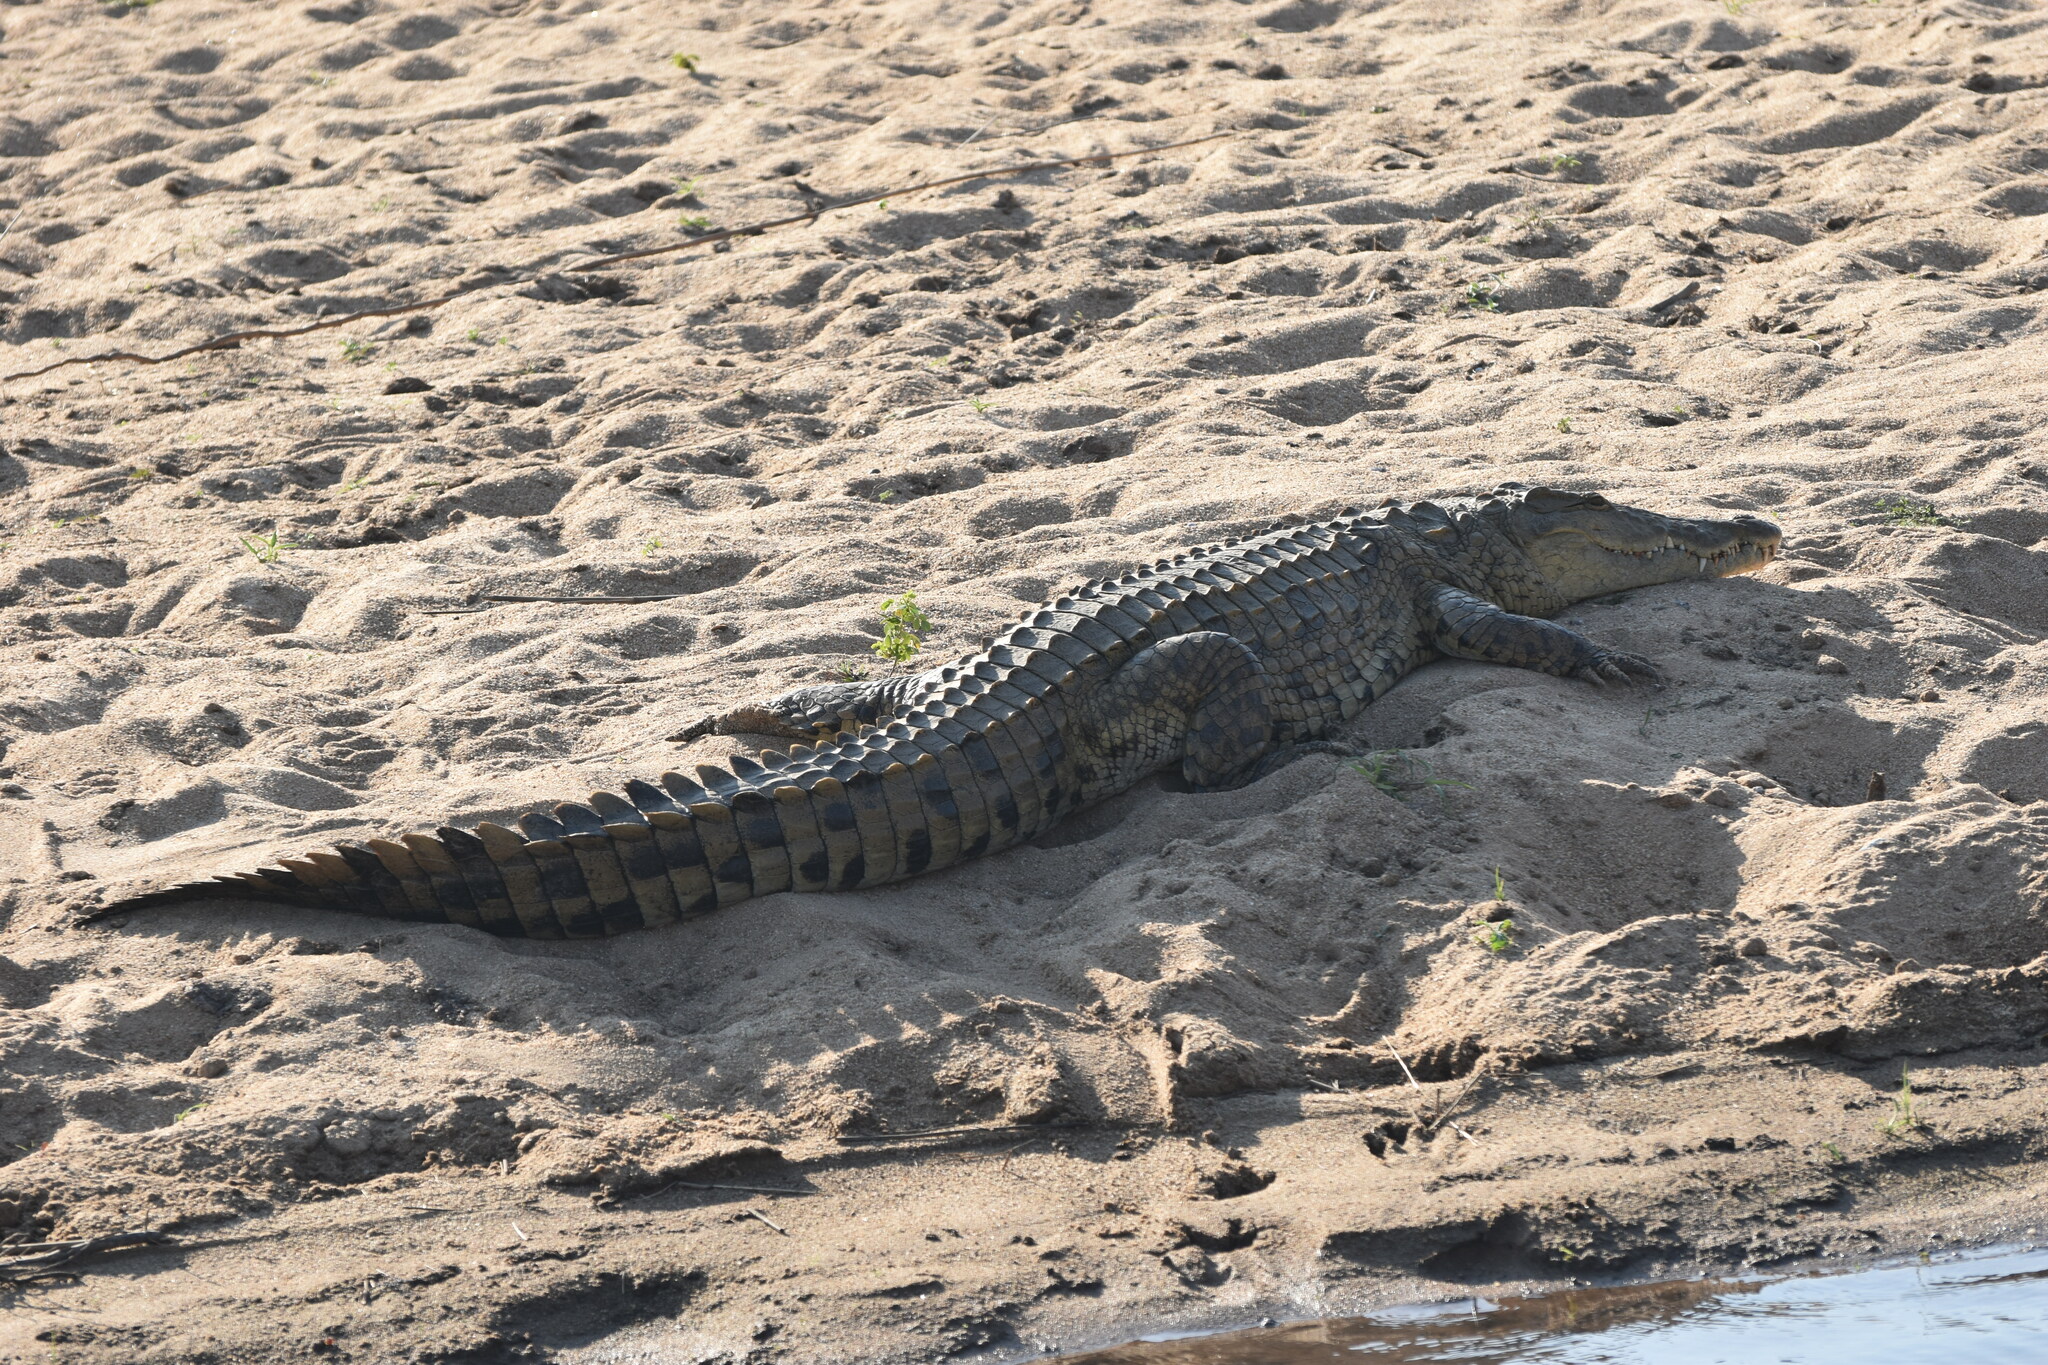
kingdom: Animalia
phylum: Chordata
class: Crocodylia
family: Crocodylidae
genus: Crocodylus
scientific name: Crocodylus niloticus
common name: Nile crocodile
